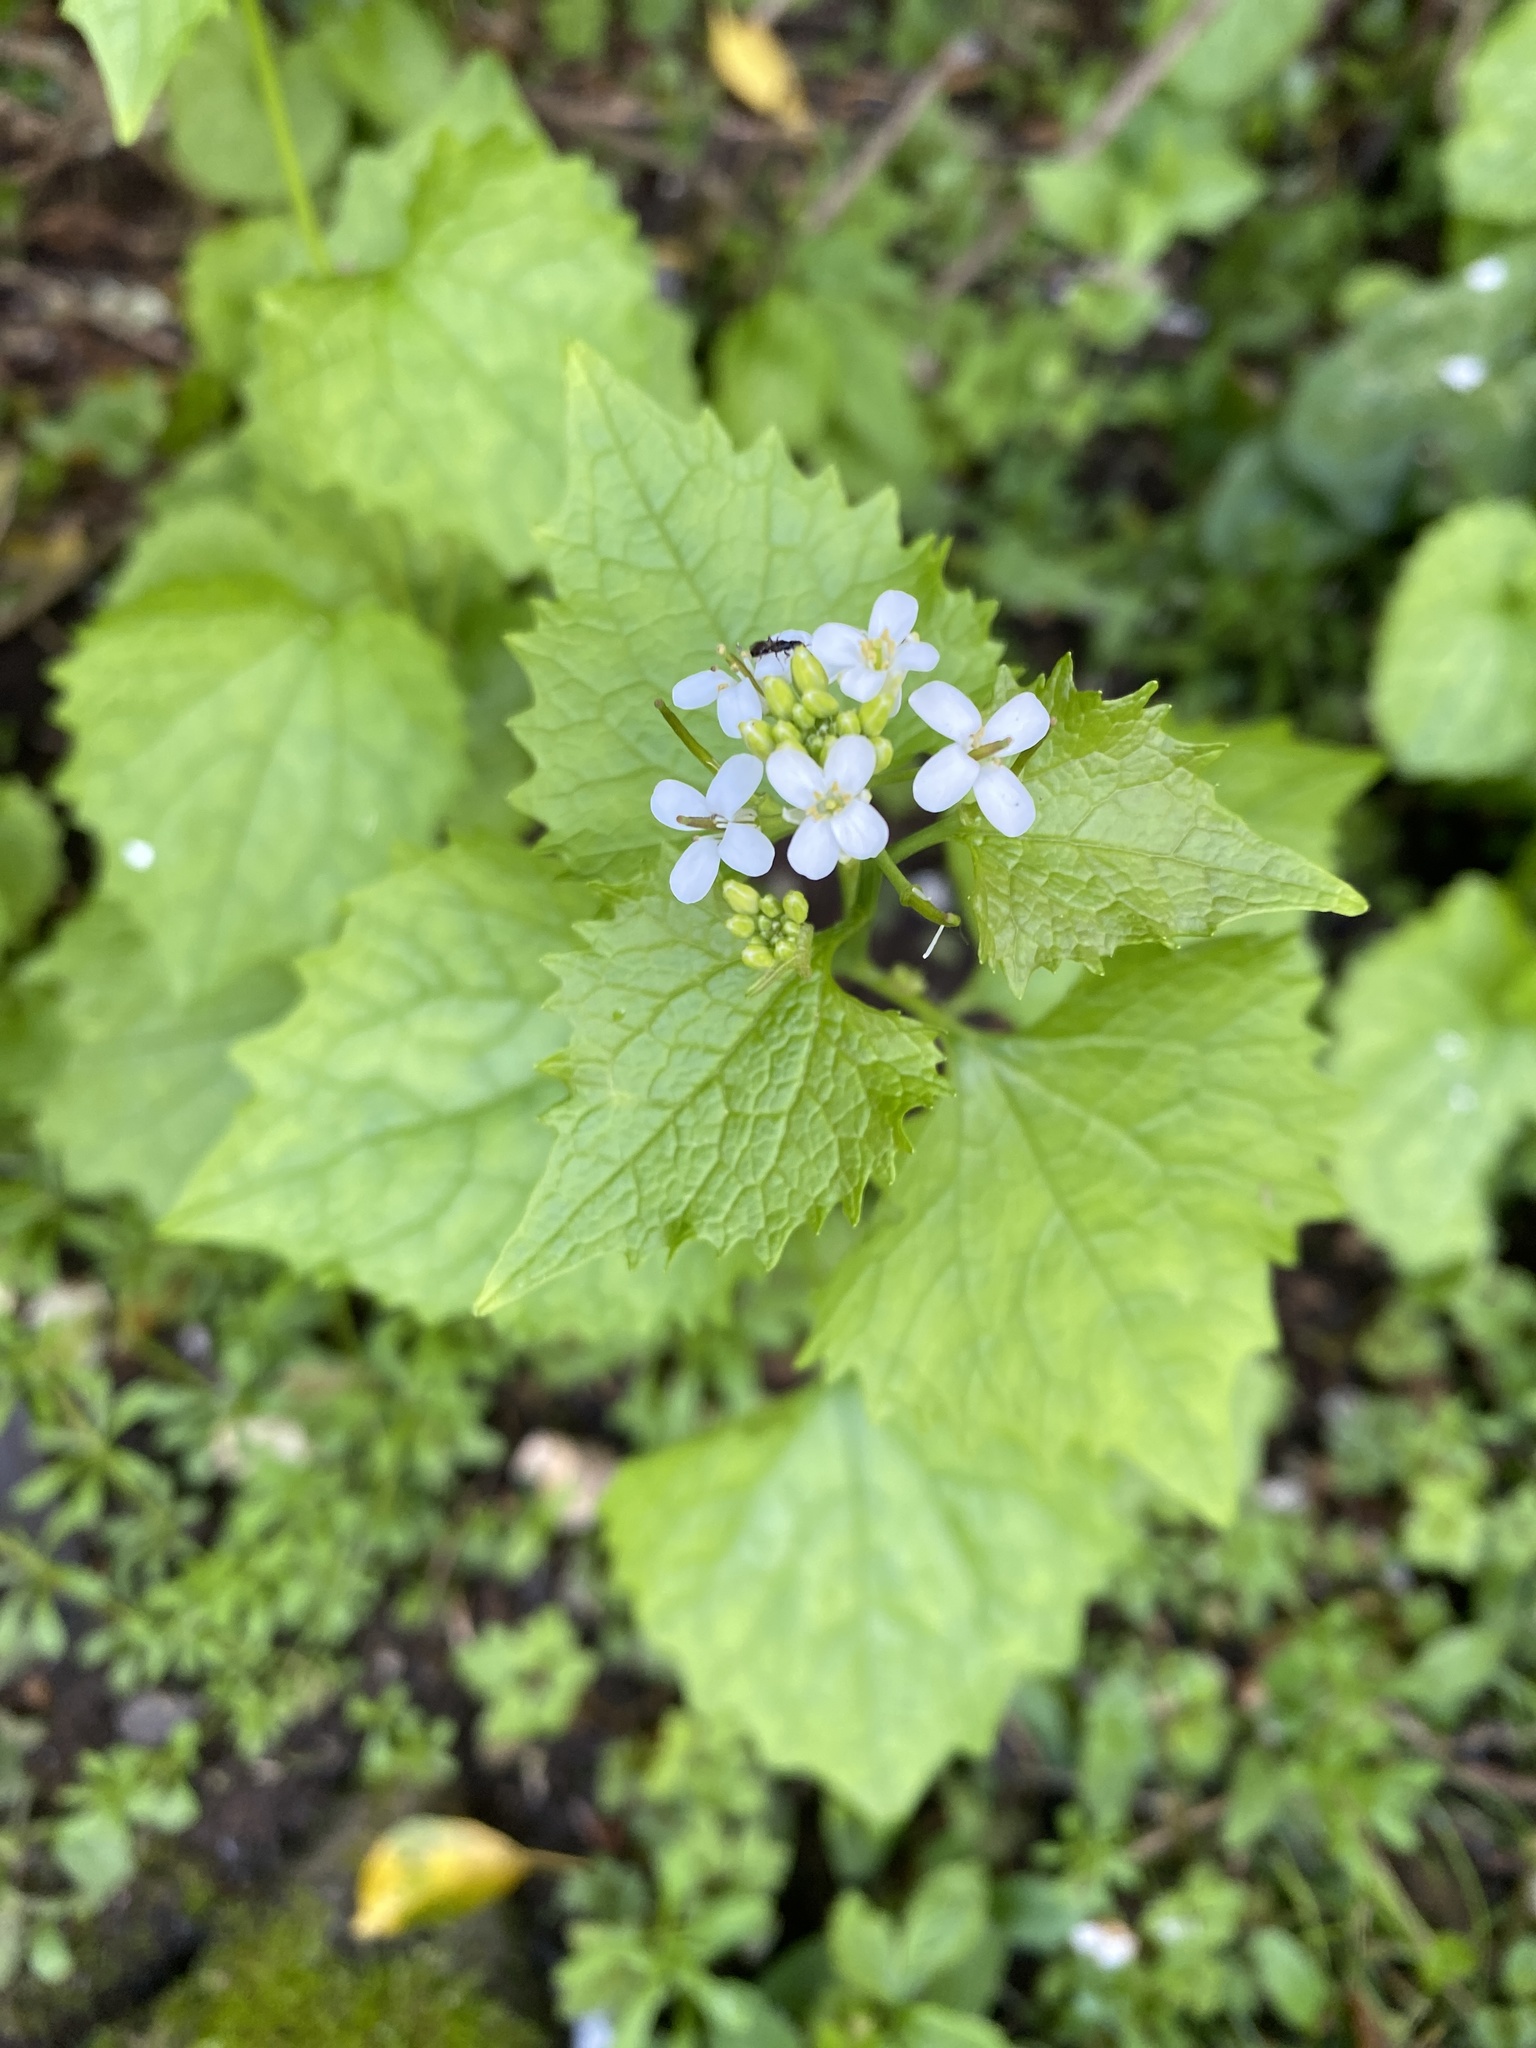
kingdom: Plantae
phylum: Tracheophyta
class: Magnoliopsida
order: Brassicales
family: Brassicaceae
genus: Alliaria
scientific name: Alliaria petiolata
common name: Garlic mustard
